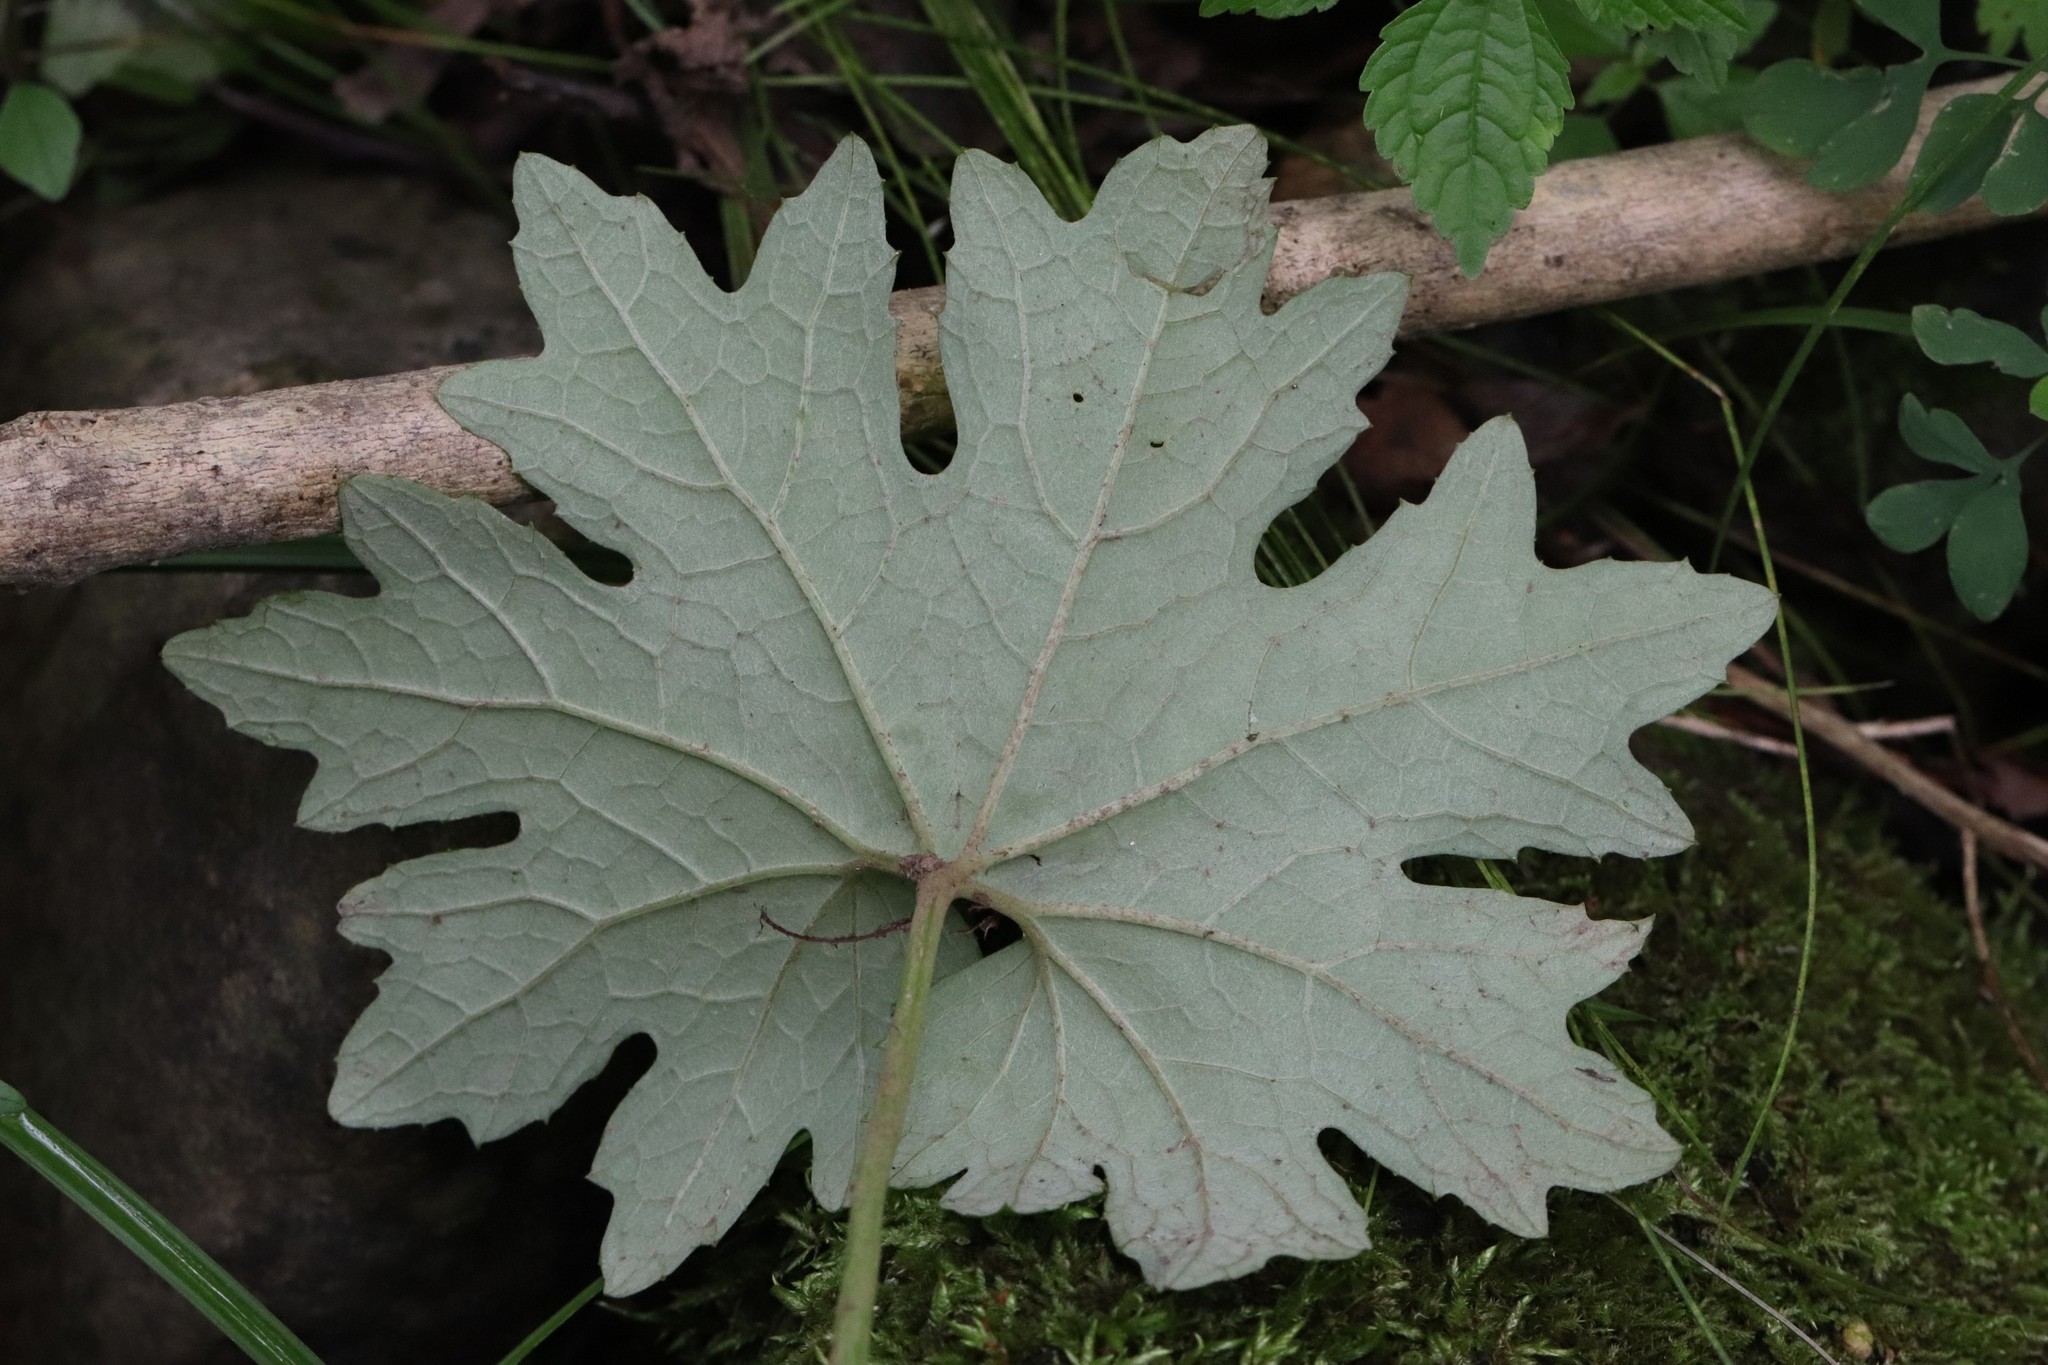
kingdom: Plantae
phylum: Tracheophyta
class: Magnoliopsida
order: Asterales
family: Asteraceae
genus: Petasites
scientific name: Petasites tatewakianus
